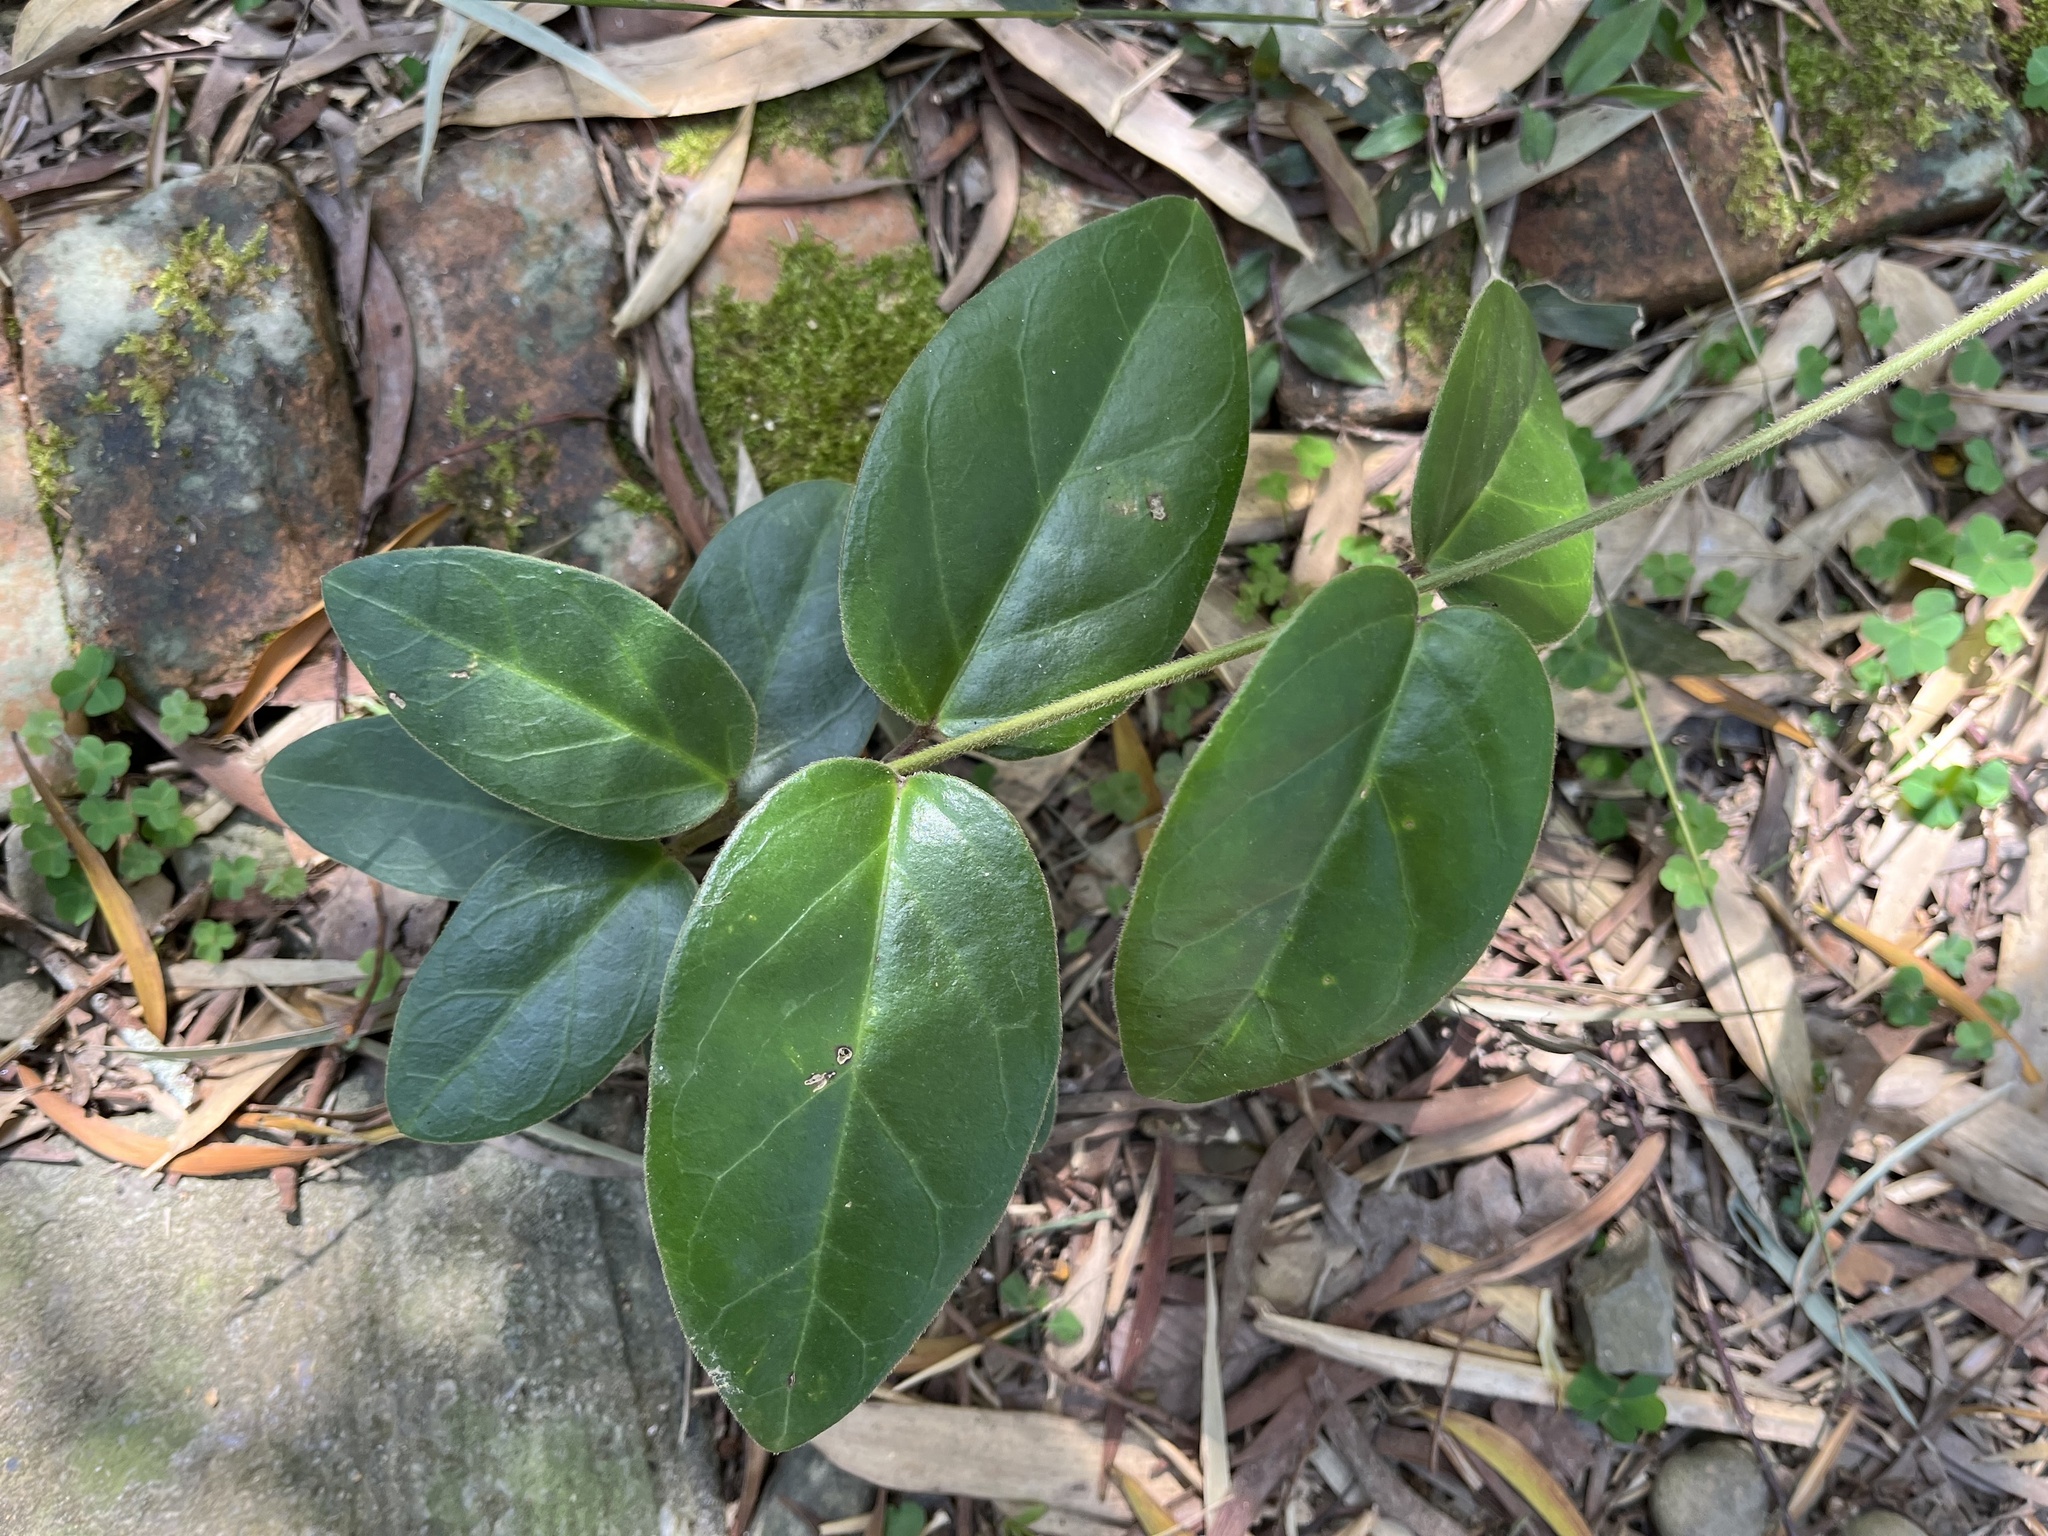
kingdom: Plantae
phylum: Tracheophyta
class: Magnoliopsida
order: Gentianales
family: Apocynaceae
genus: Vincetoxicum
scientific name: Vincetoxicum hirsutum
